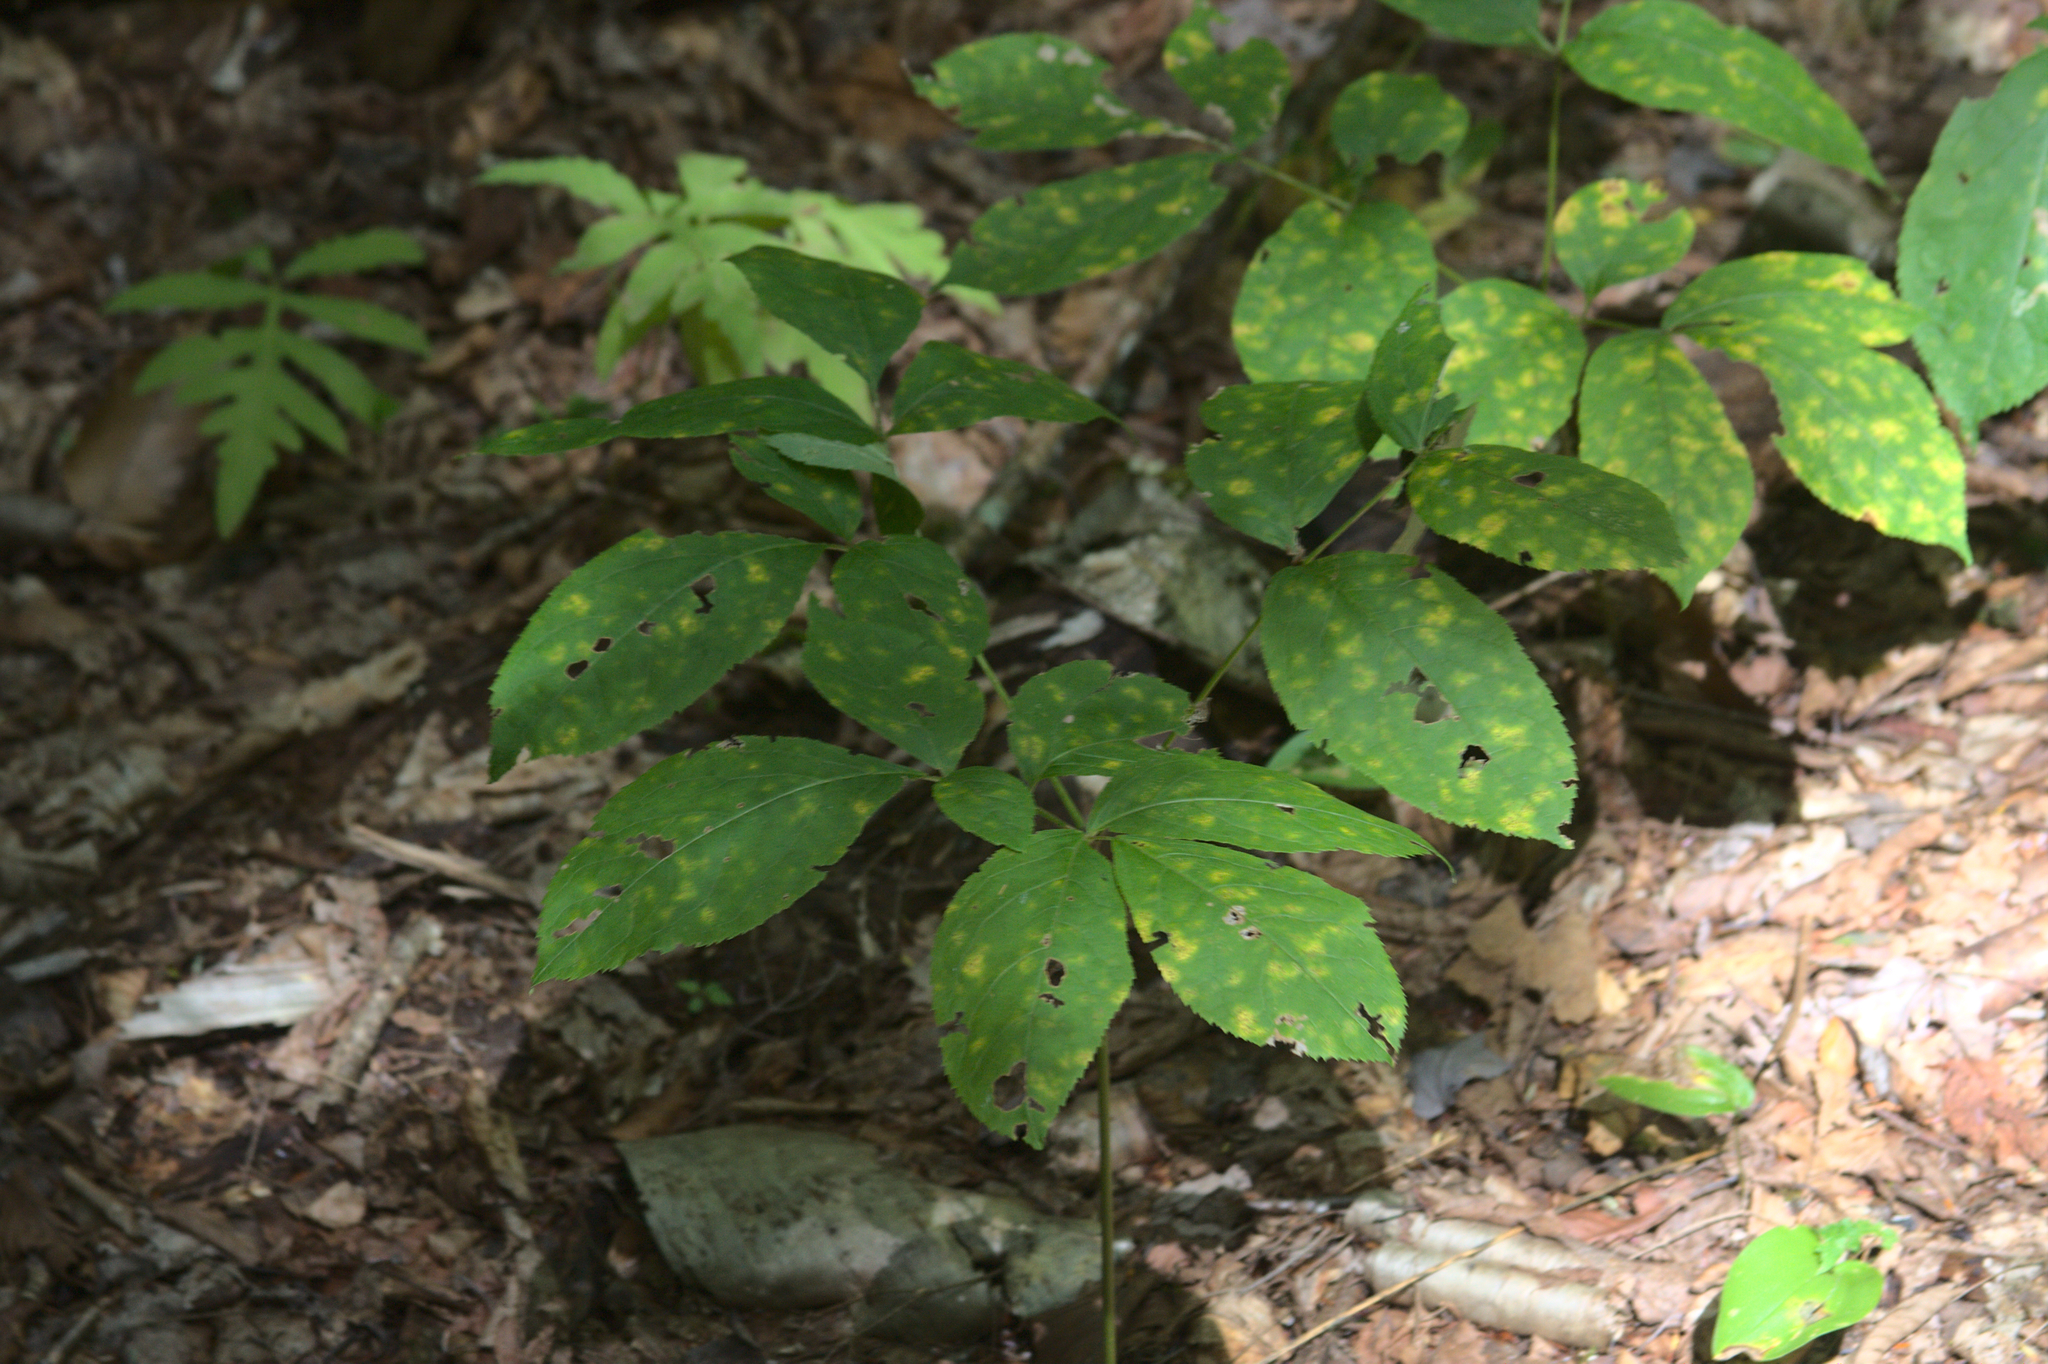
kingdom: Plantae
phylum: Tracheophyta
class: Magnoliopsida
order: Apiales
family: Araliaceae
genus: Aralia
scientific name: Aralia nudicaulis
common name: Wild sarsaparilla
